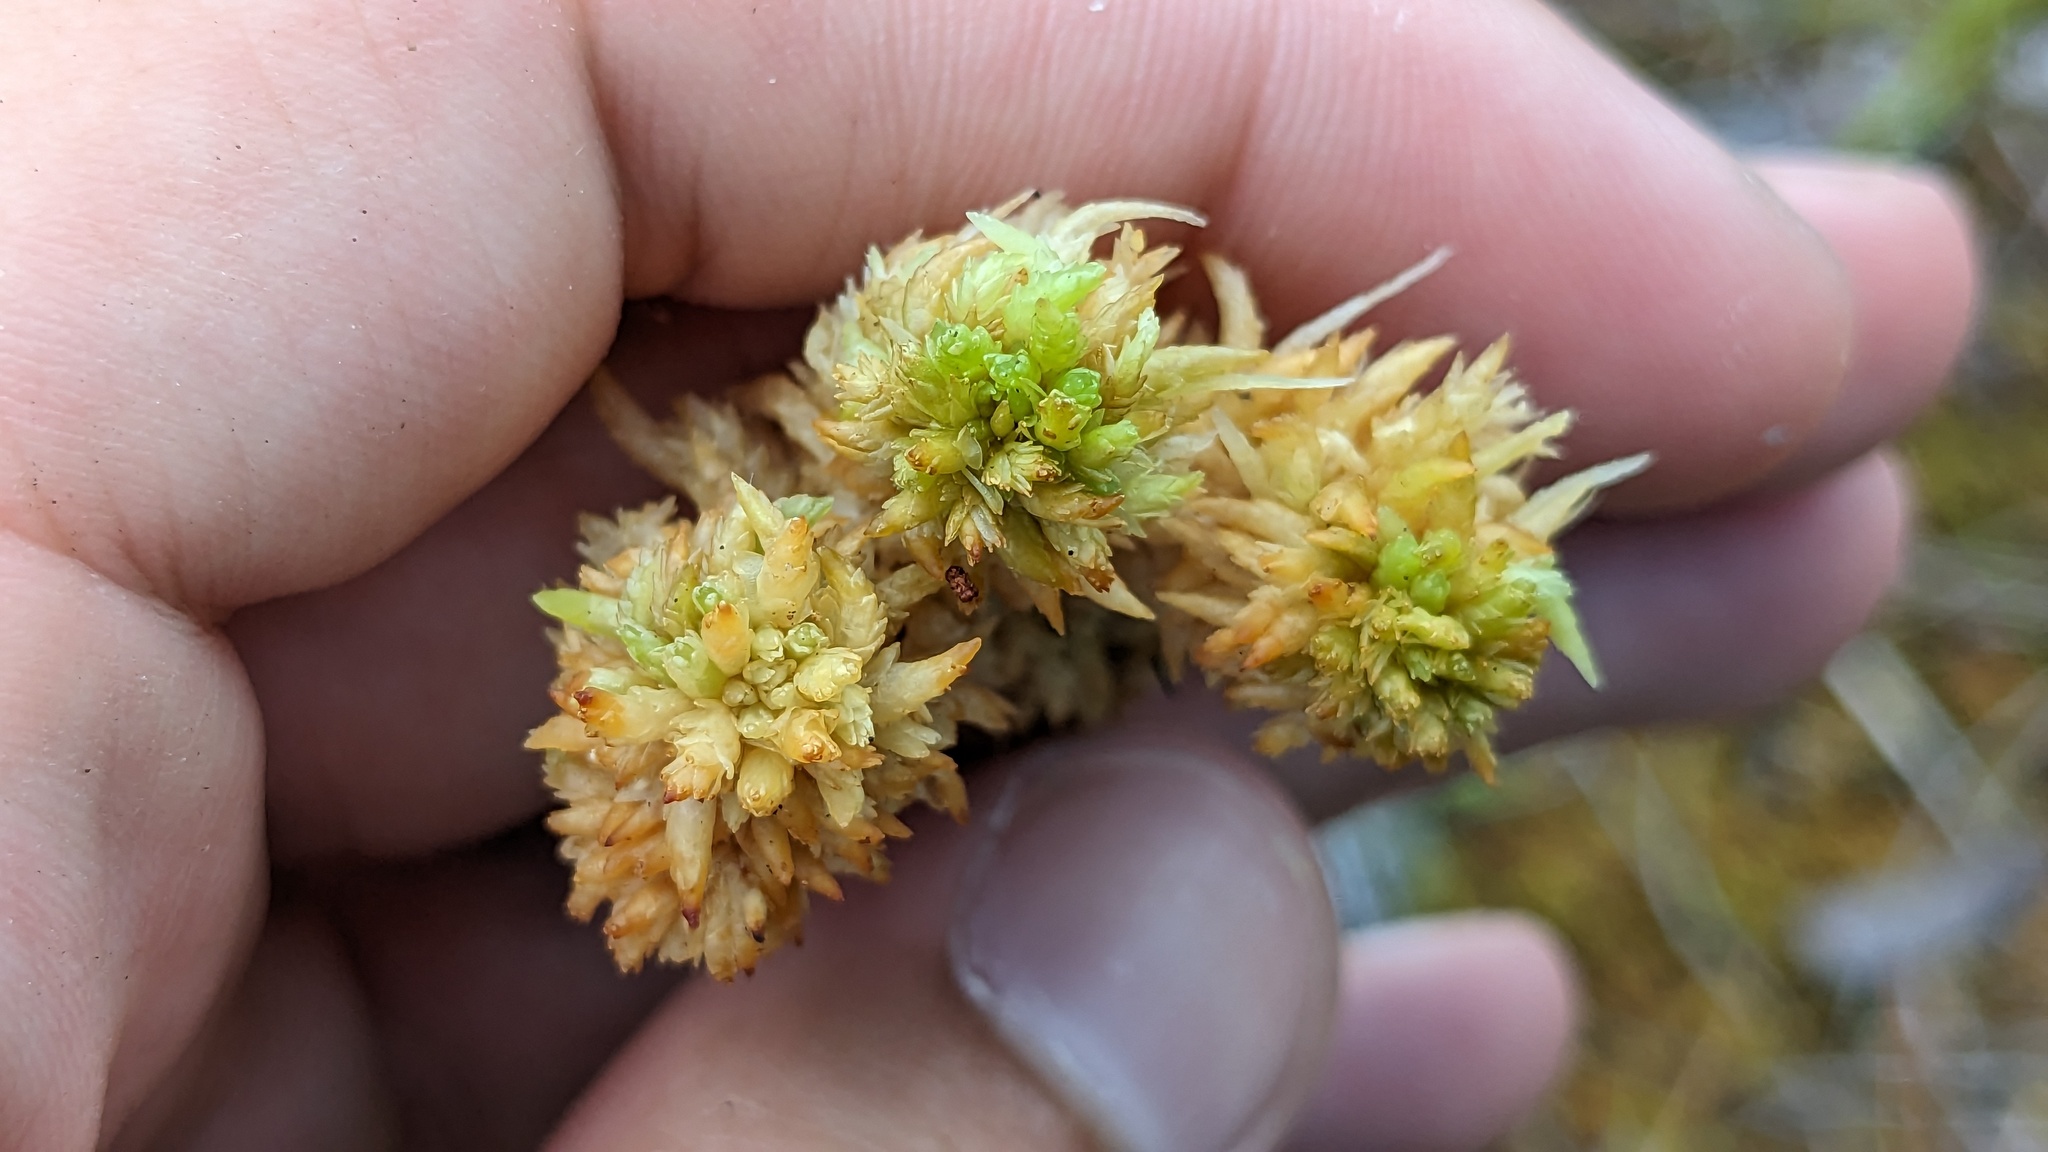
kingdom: Plantae
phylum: Bryophyta
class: Sphagnopsida
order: Sphagnales
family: Sphagnaceae
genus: Sphagnum
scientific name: Sphagnum perichaetiale
